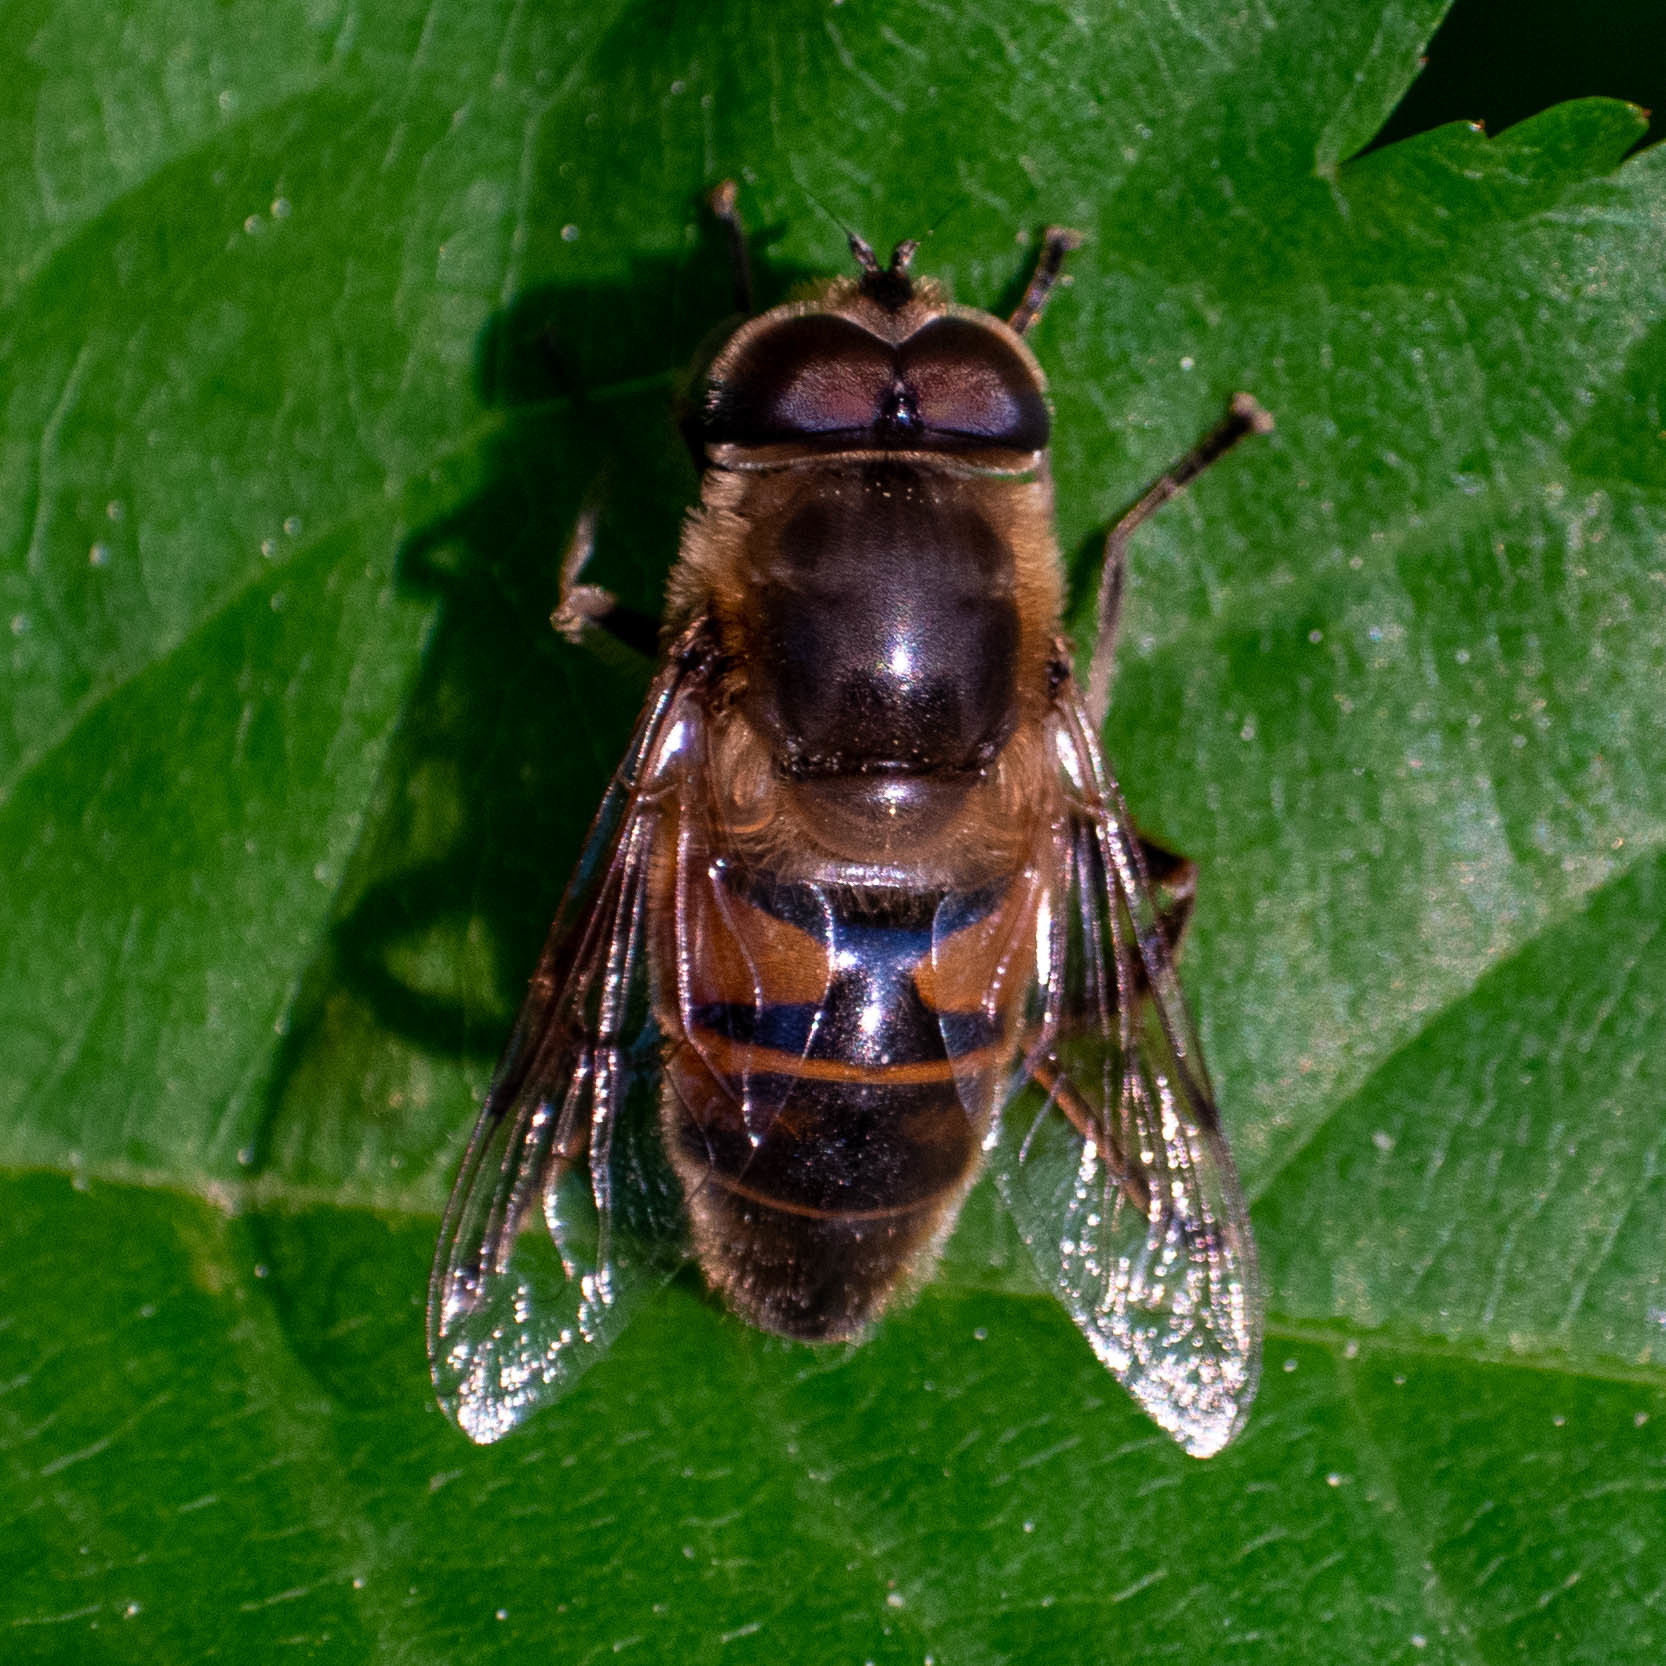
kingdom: Animalia
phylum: Arthropoda
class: Insecta
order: Diptera
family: Syrphidae
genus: Eristalis
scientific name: Eristalis tenax
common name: Drone fly
